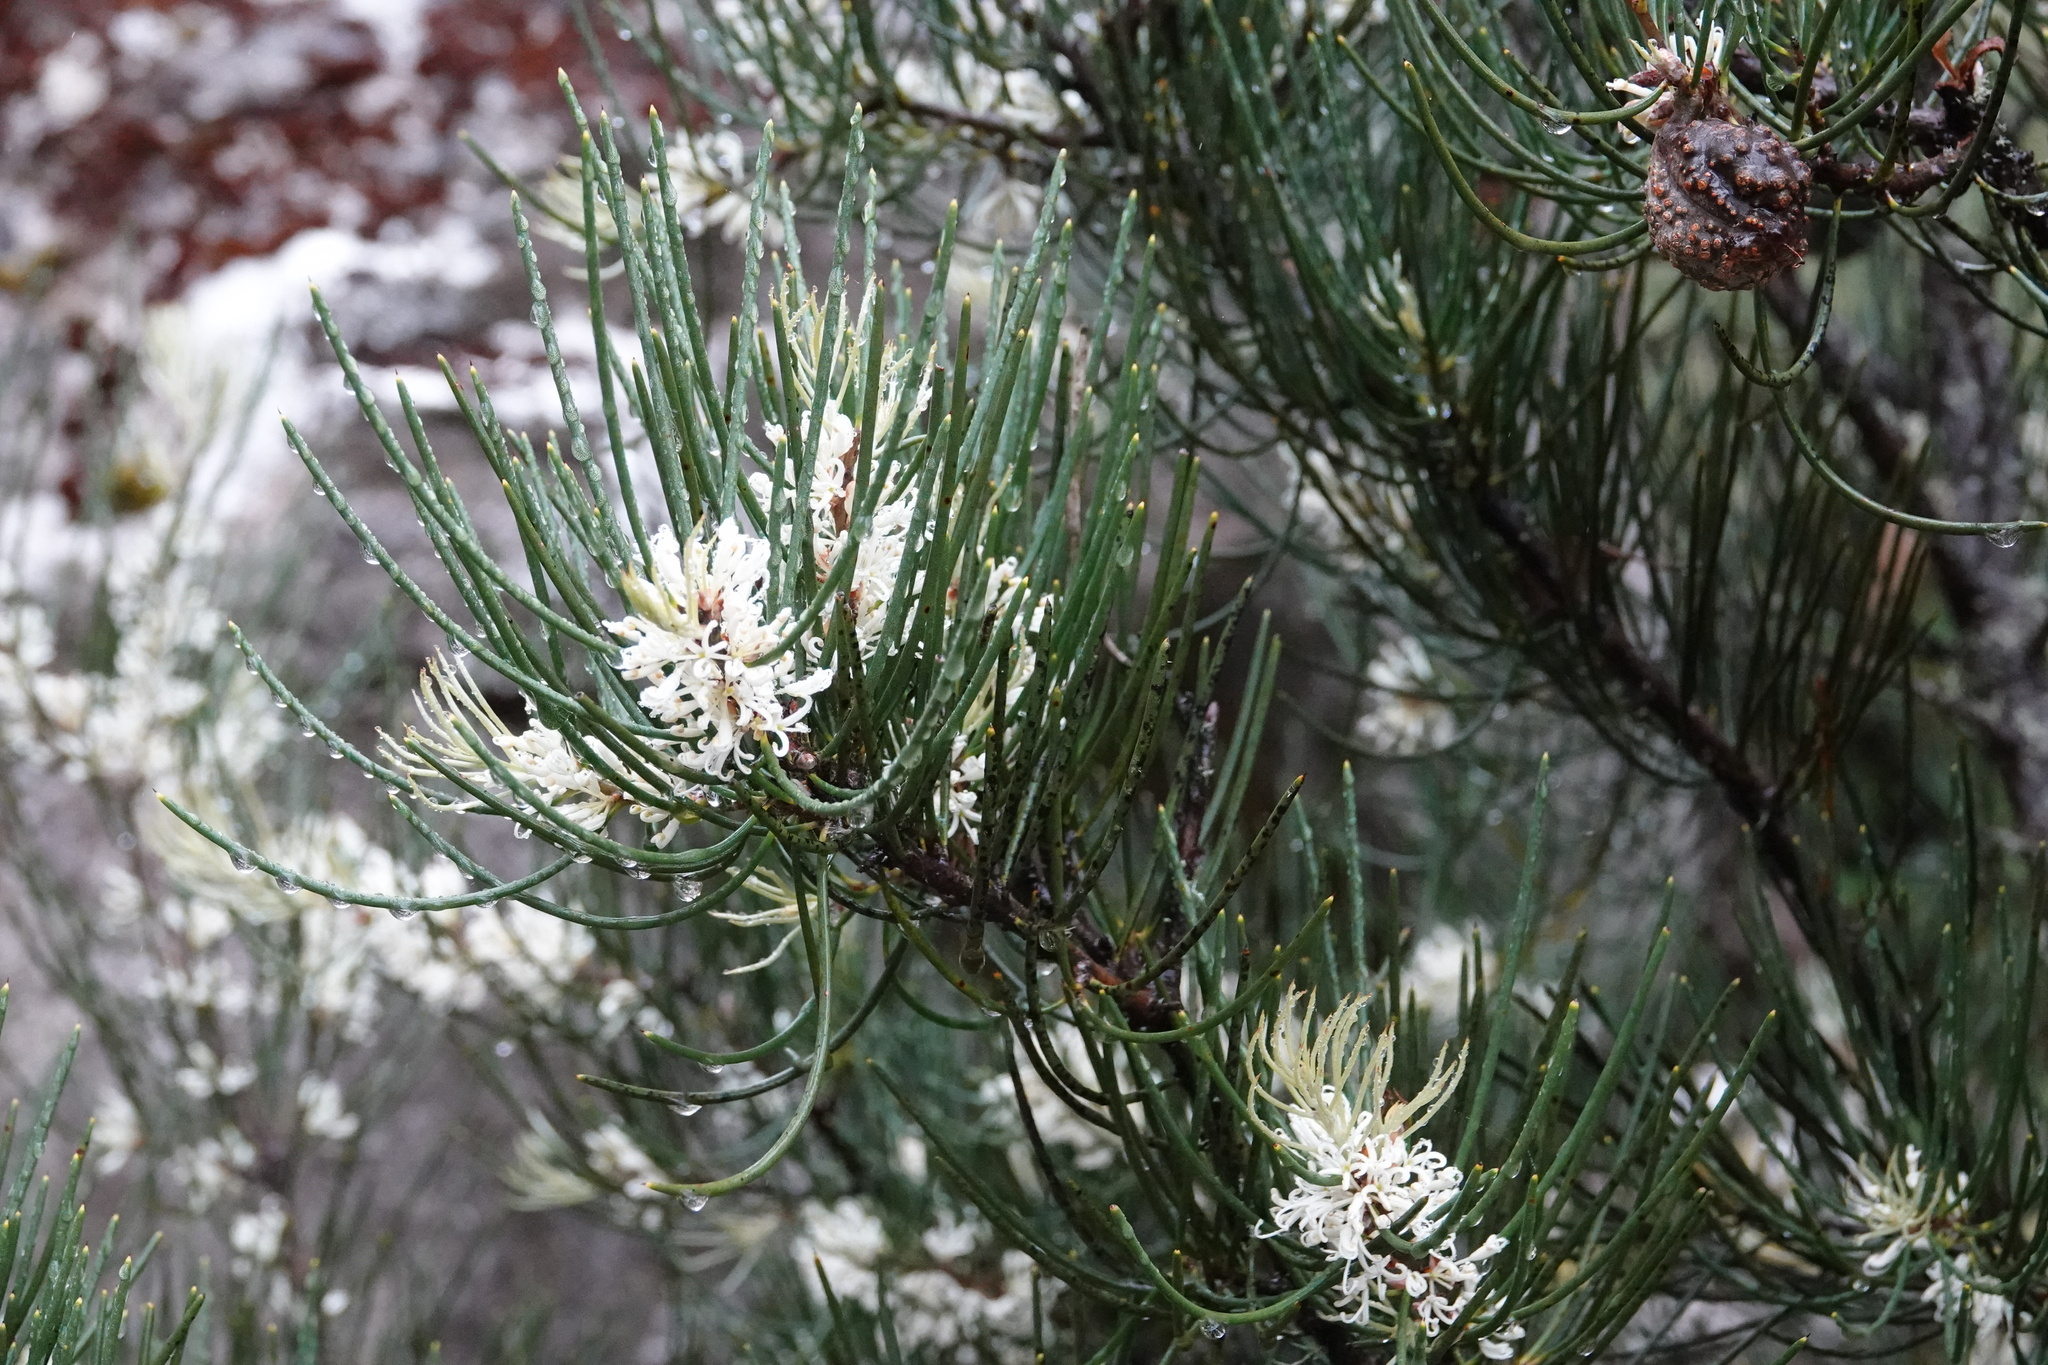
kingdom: Plantae
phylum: Tracheophyta
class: Magnoliopsida
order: Proteales
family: Proteaceae
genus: Hakea
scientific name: Hakea lissosperma
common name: Mountain needlewood
